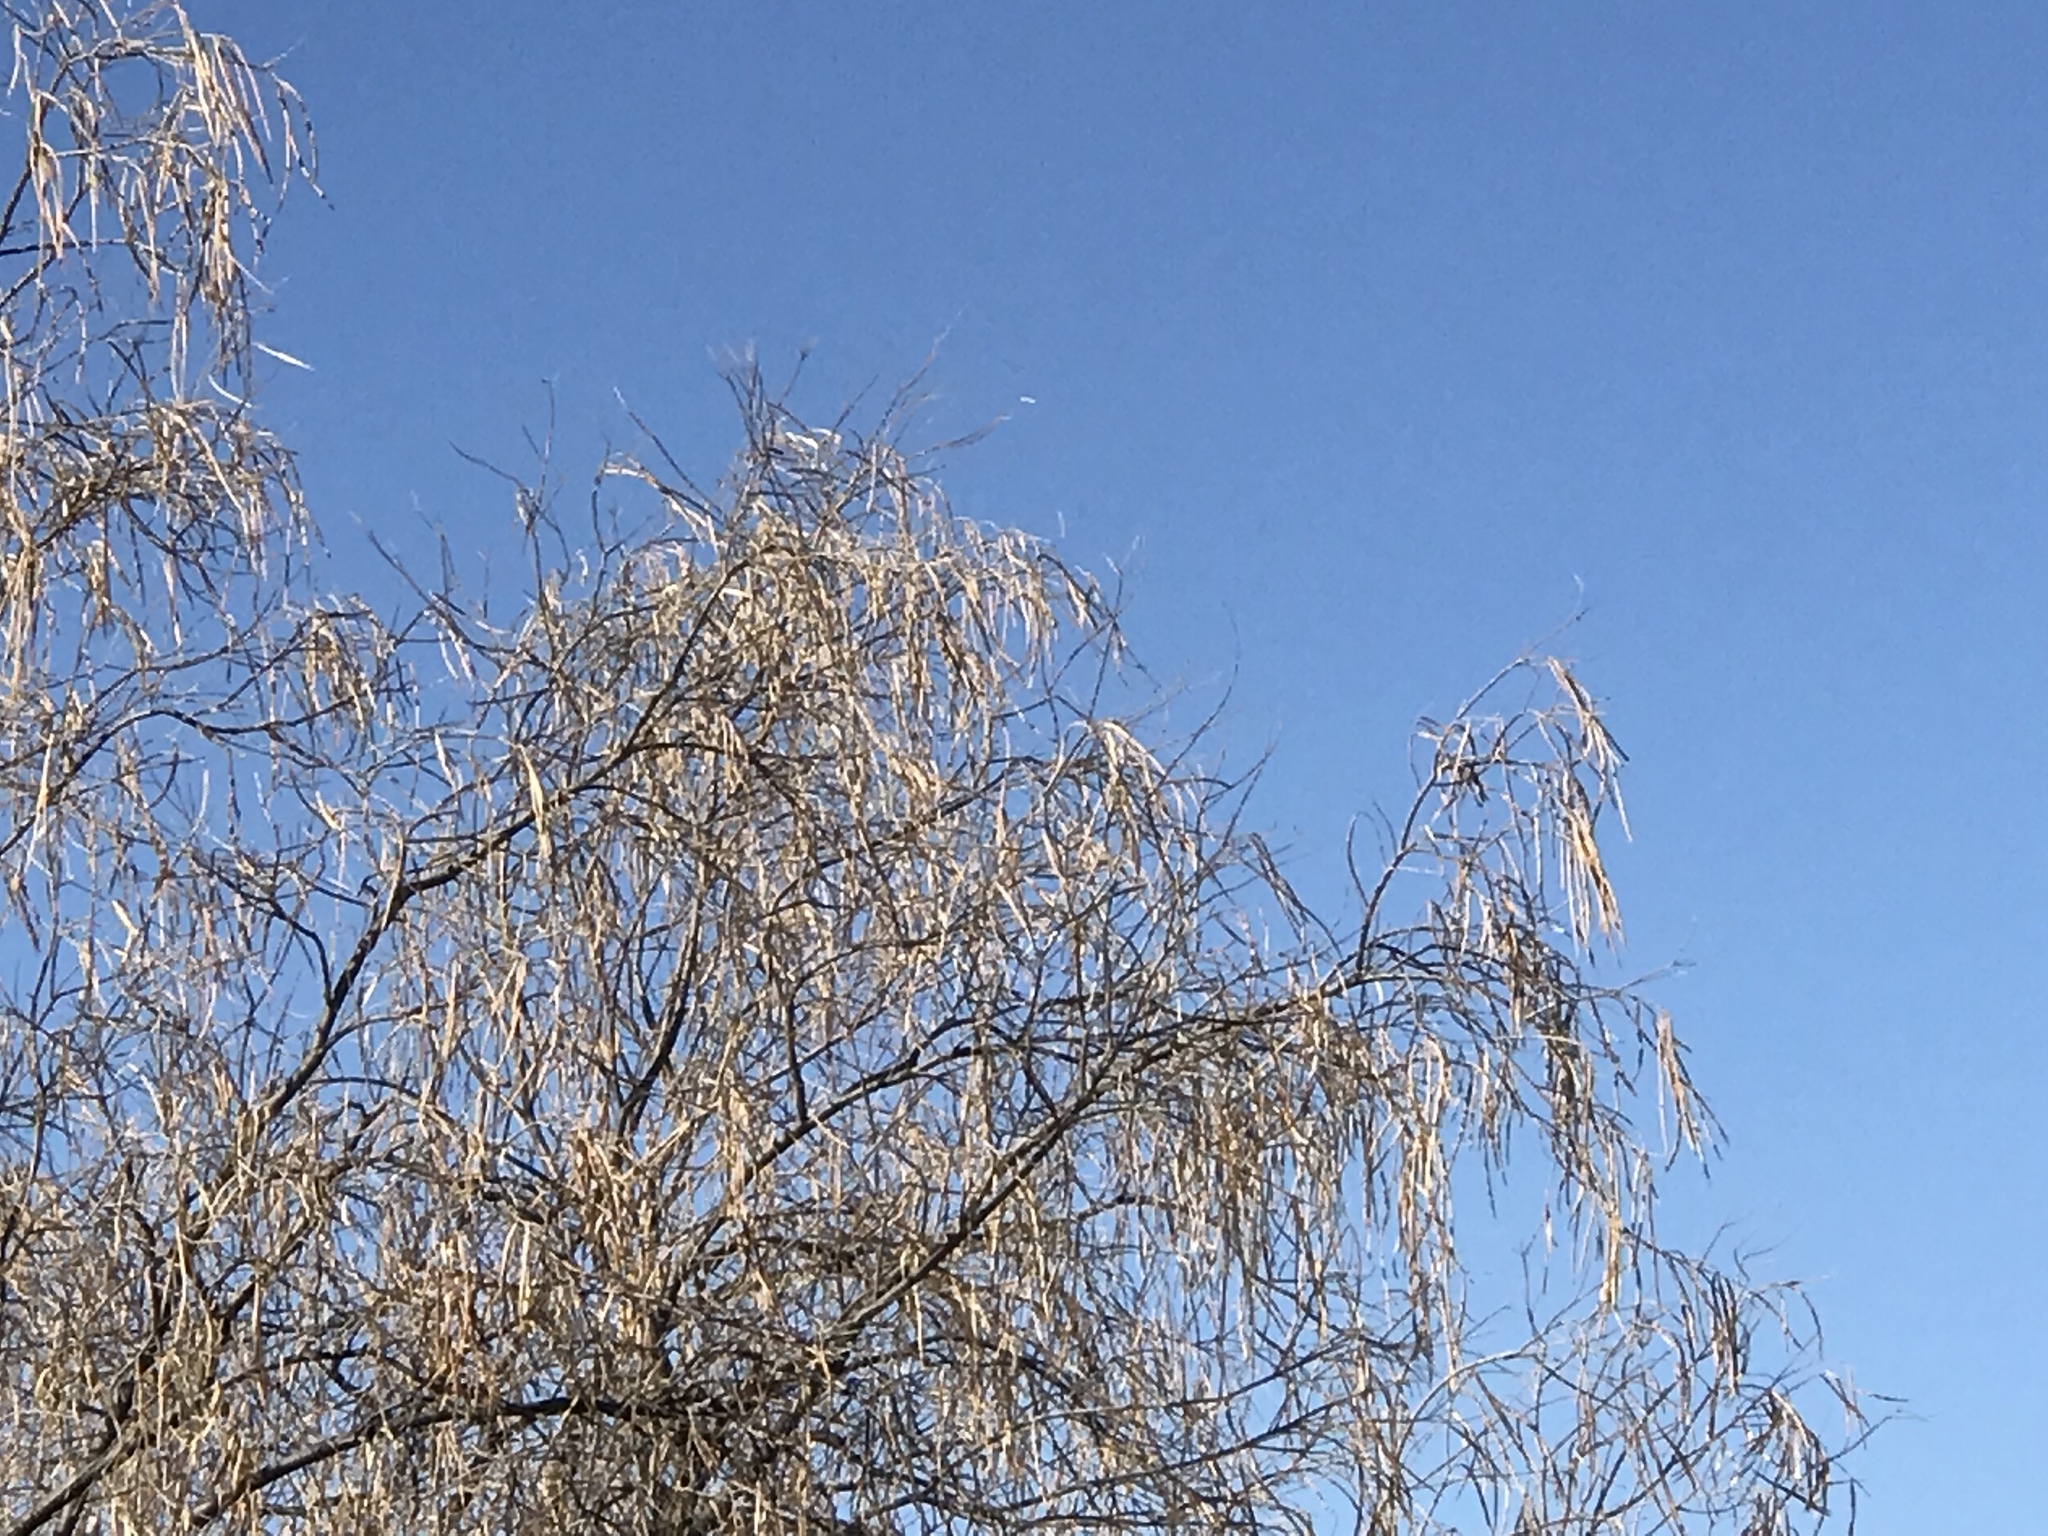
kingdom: Plantae
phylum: Tracheophyta
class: Magnoliopsida
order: Lamiales
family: Bignoniaceae
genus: Chilopsis
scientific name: Chilopsis linearis
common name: Desert-willow
